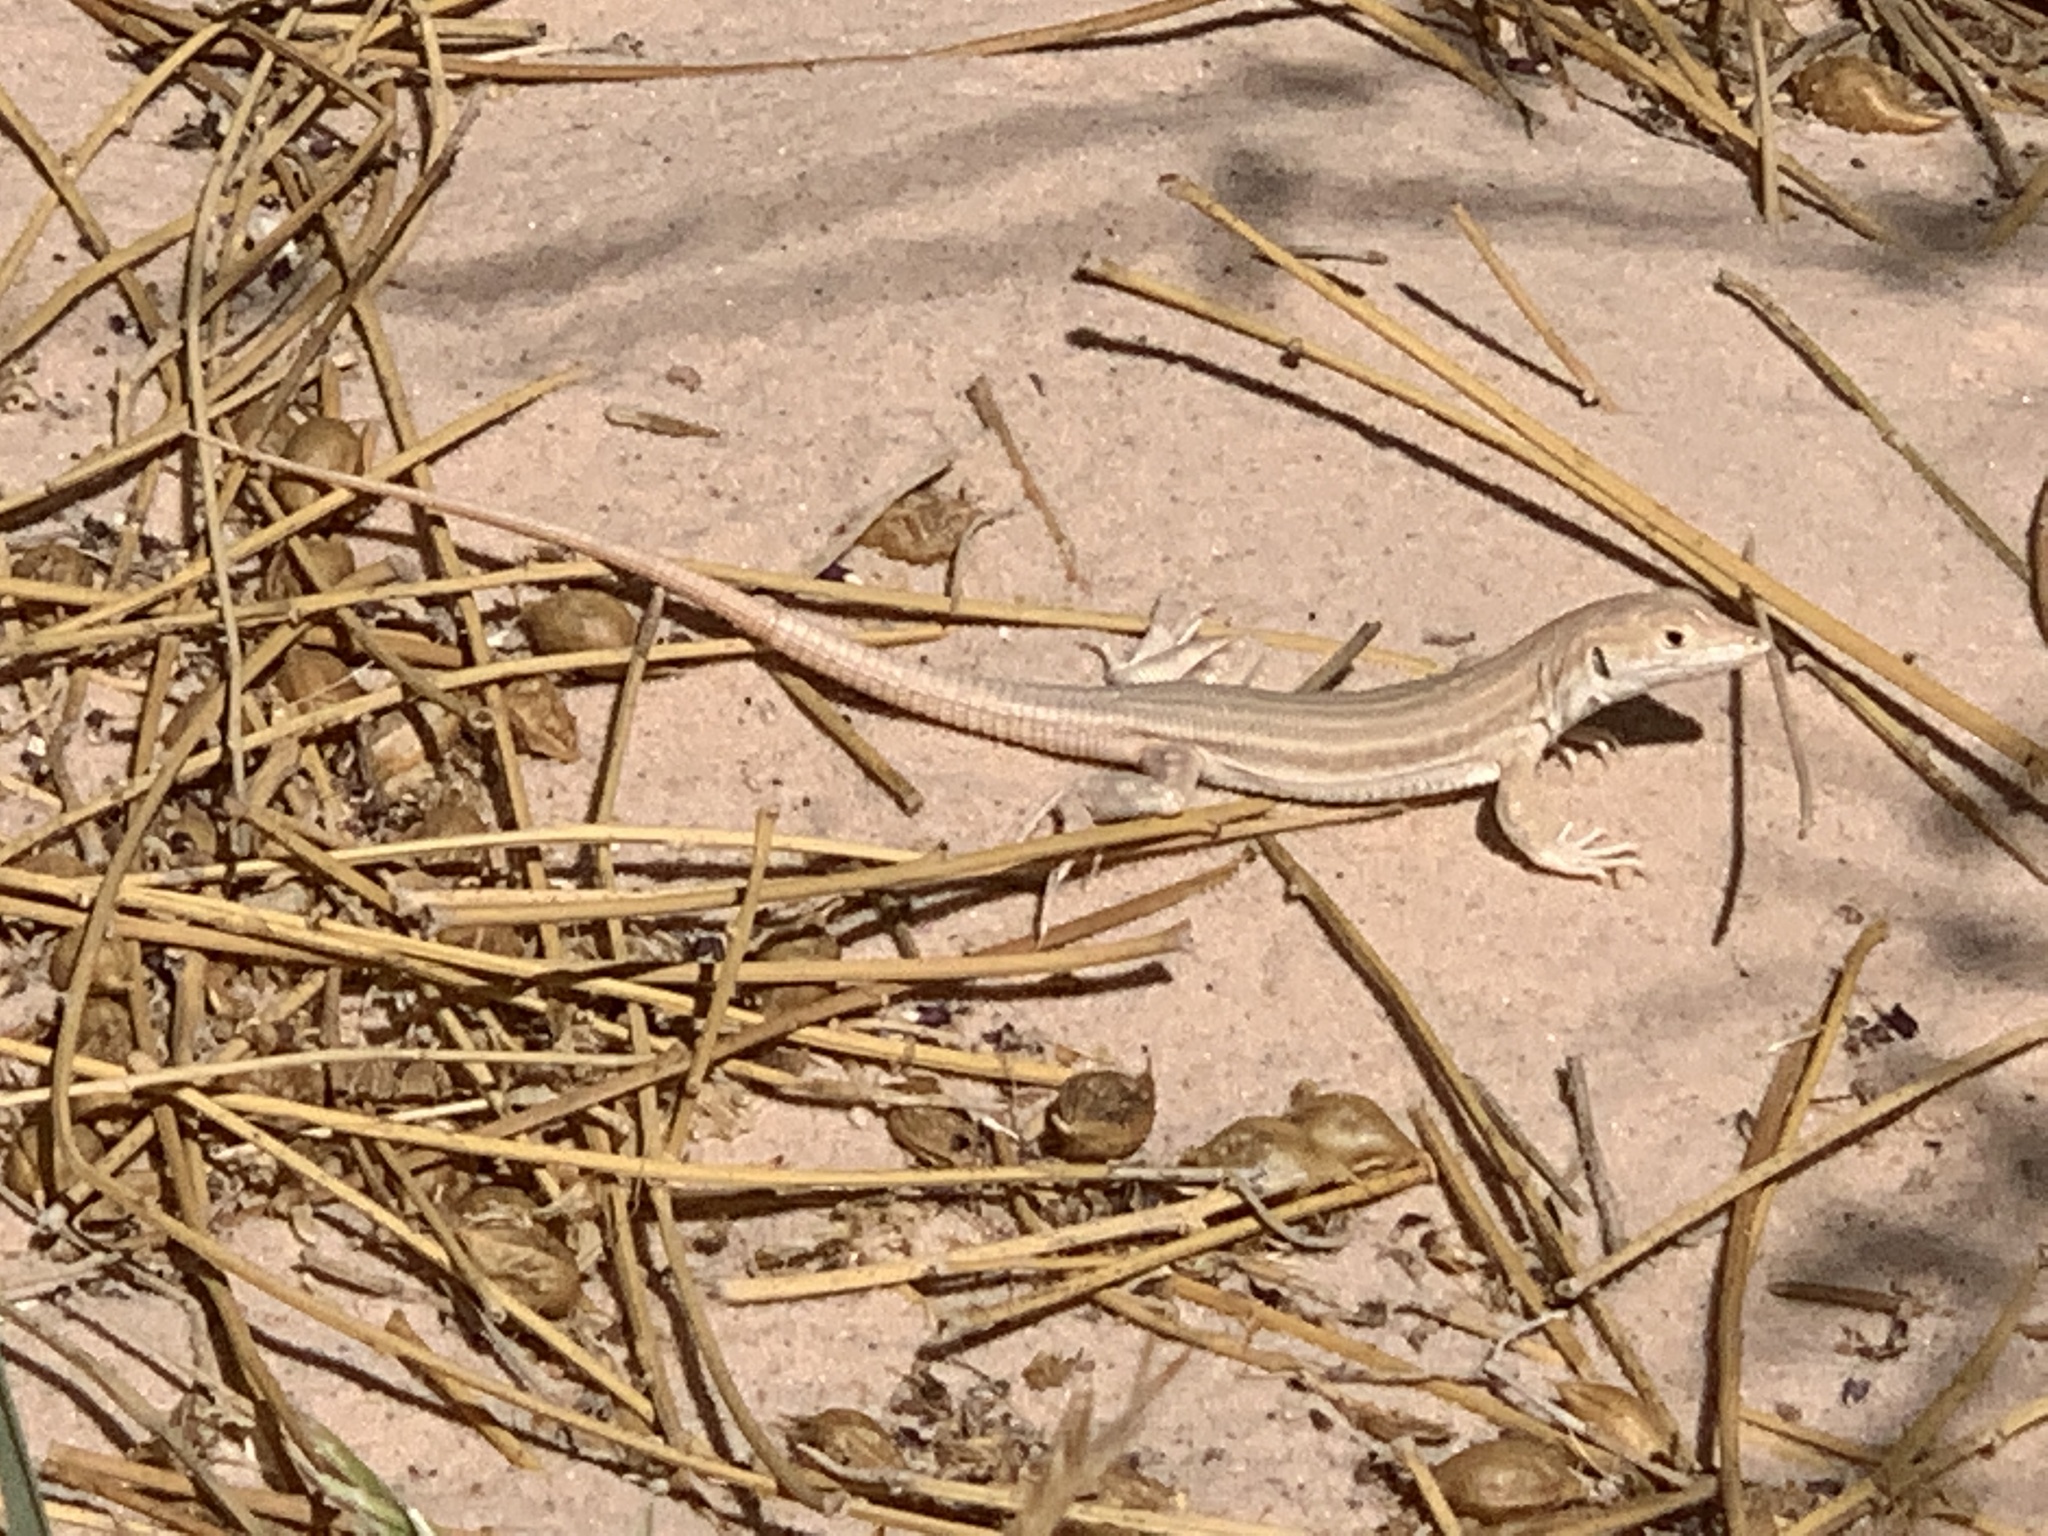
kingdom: Animalia
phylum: Chordata
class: Squamata
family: Lacertidae
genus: Acanthodactylus
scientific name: Acanthodactylus boskianus
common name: Bosc’s fringe-toed lizard
